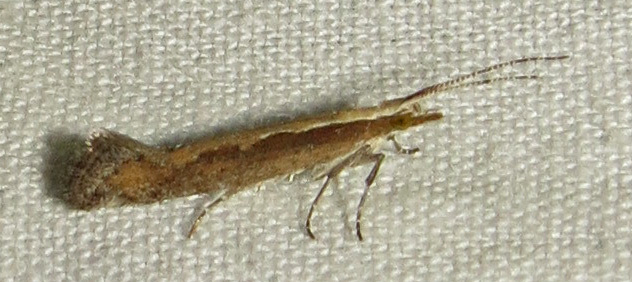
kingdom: Animalia
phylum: Arthropoda
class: Insecta
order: Lepidoptera
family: Plutellidae
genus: Plutella
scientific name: Plutella xylostella
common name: Diamond-back moth
